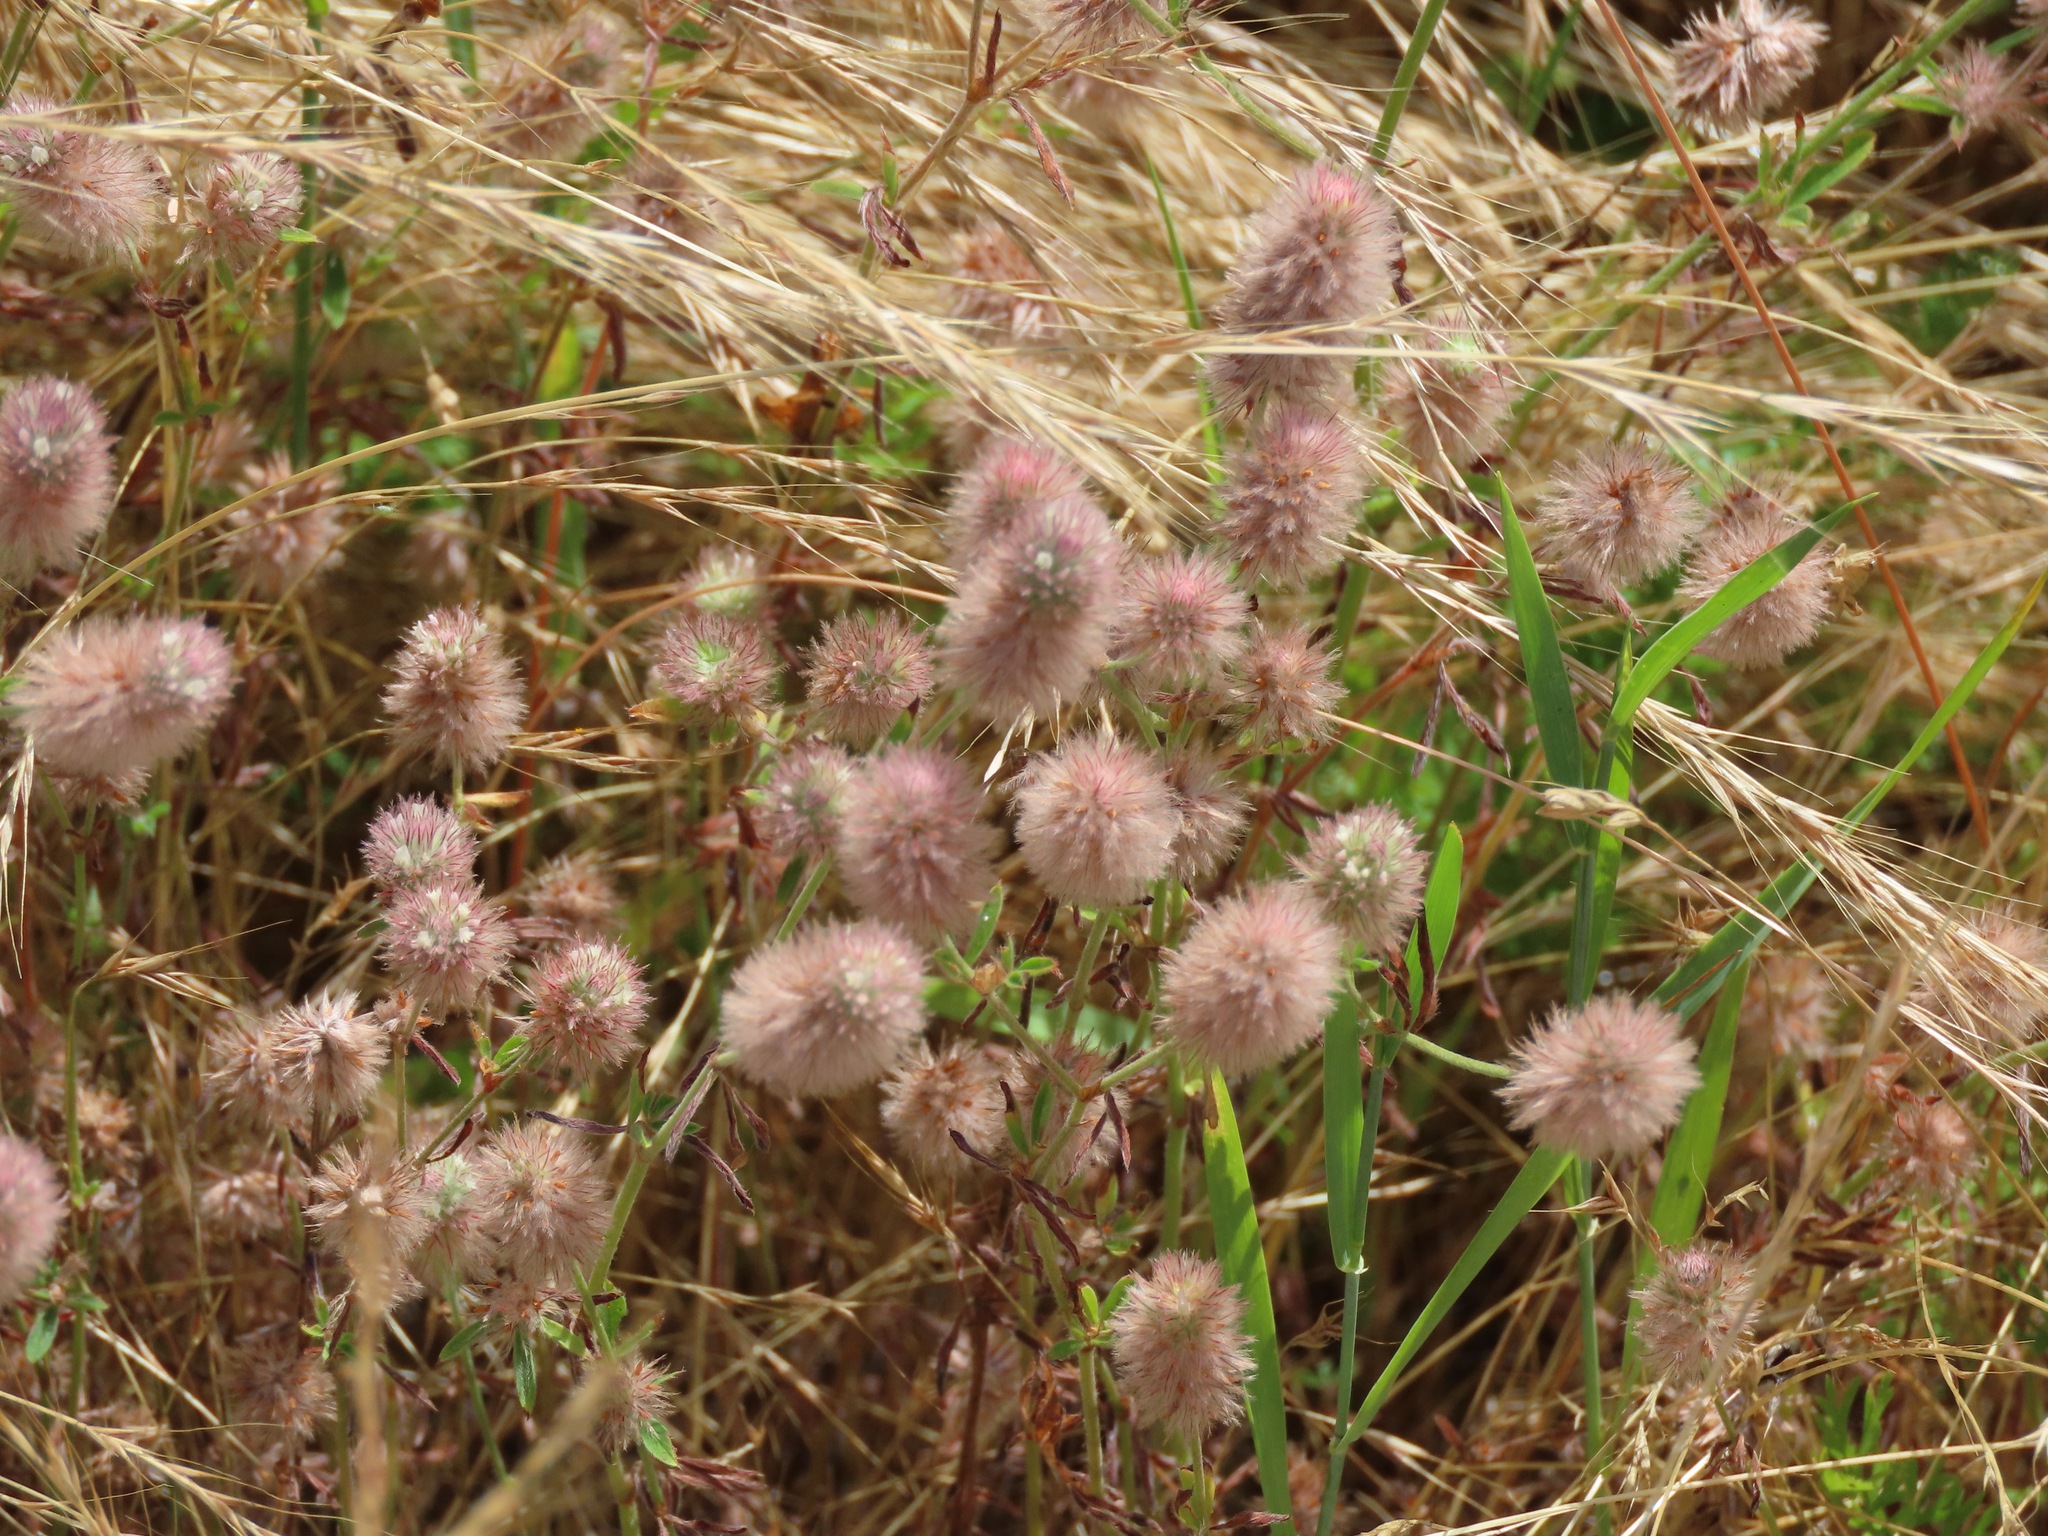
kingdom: Plantae
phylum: Tracheophyta
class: Magnoliopsida
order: Fabales
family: Fabaceae
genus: Trifolium
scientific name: Trifolium arvense
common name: Hare's-foot clover
